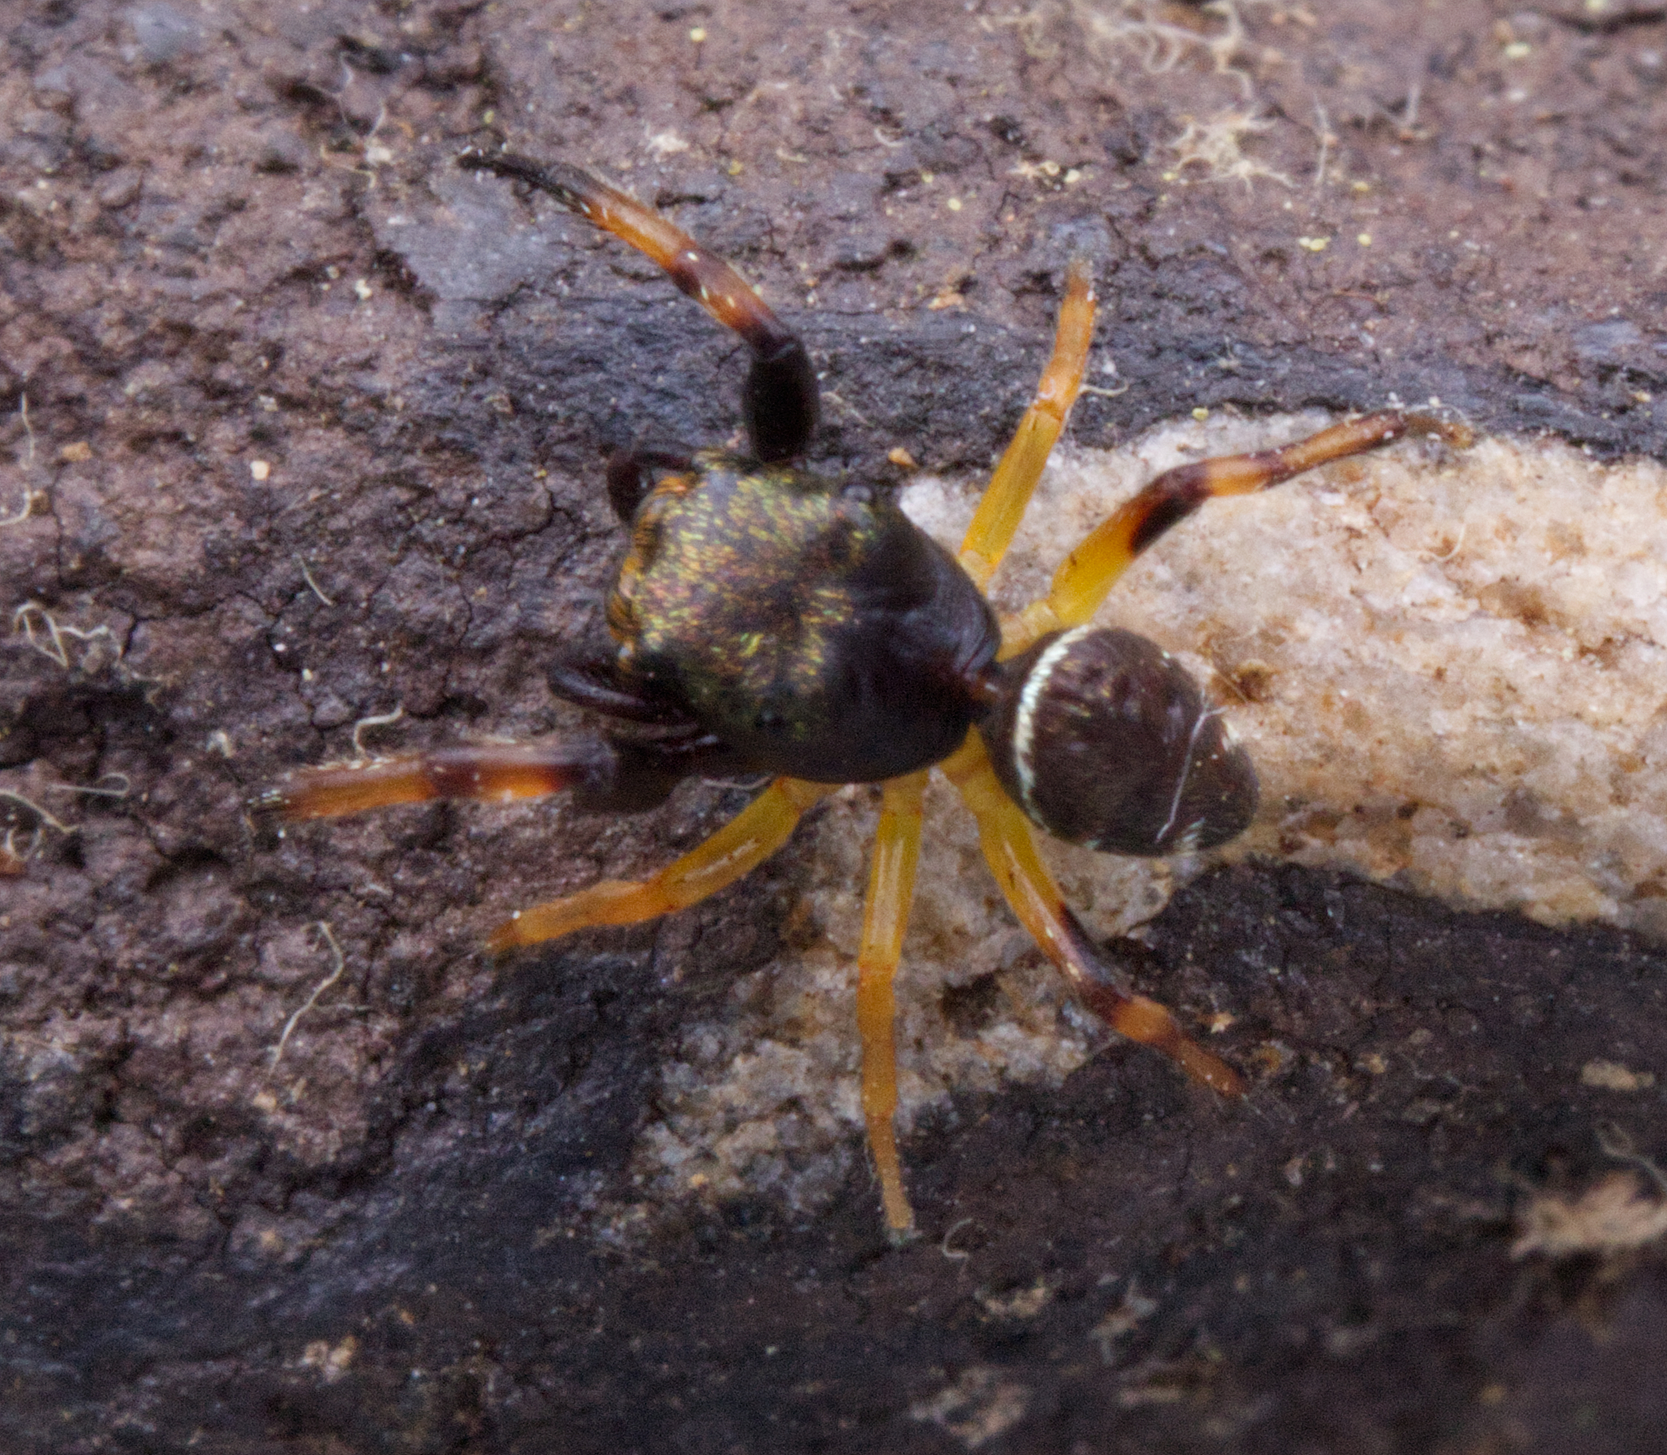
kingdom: Animalia
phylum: Arthropoda
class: Arachnida
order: Araneae
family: Salticidae
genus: Zygoballus
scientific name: Zygoballus rufipes
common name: Jumping spiders
